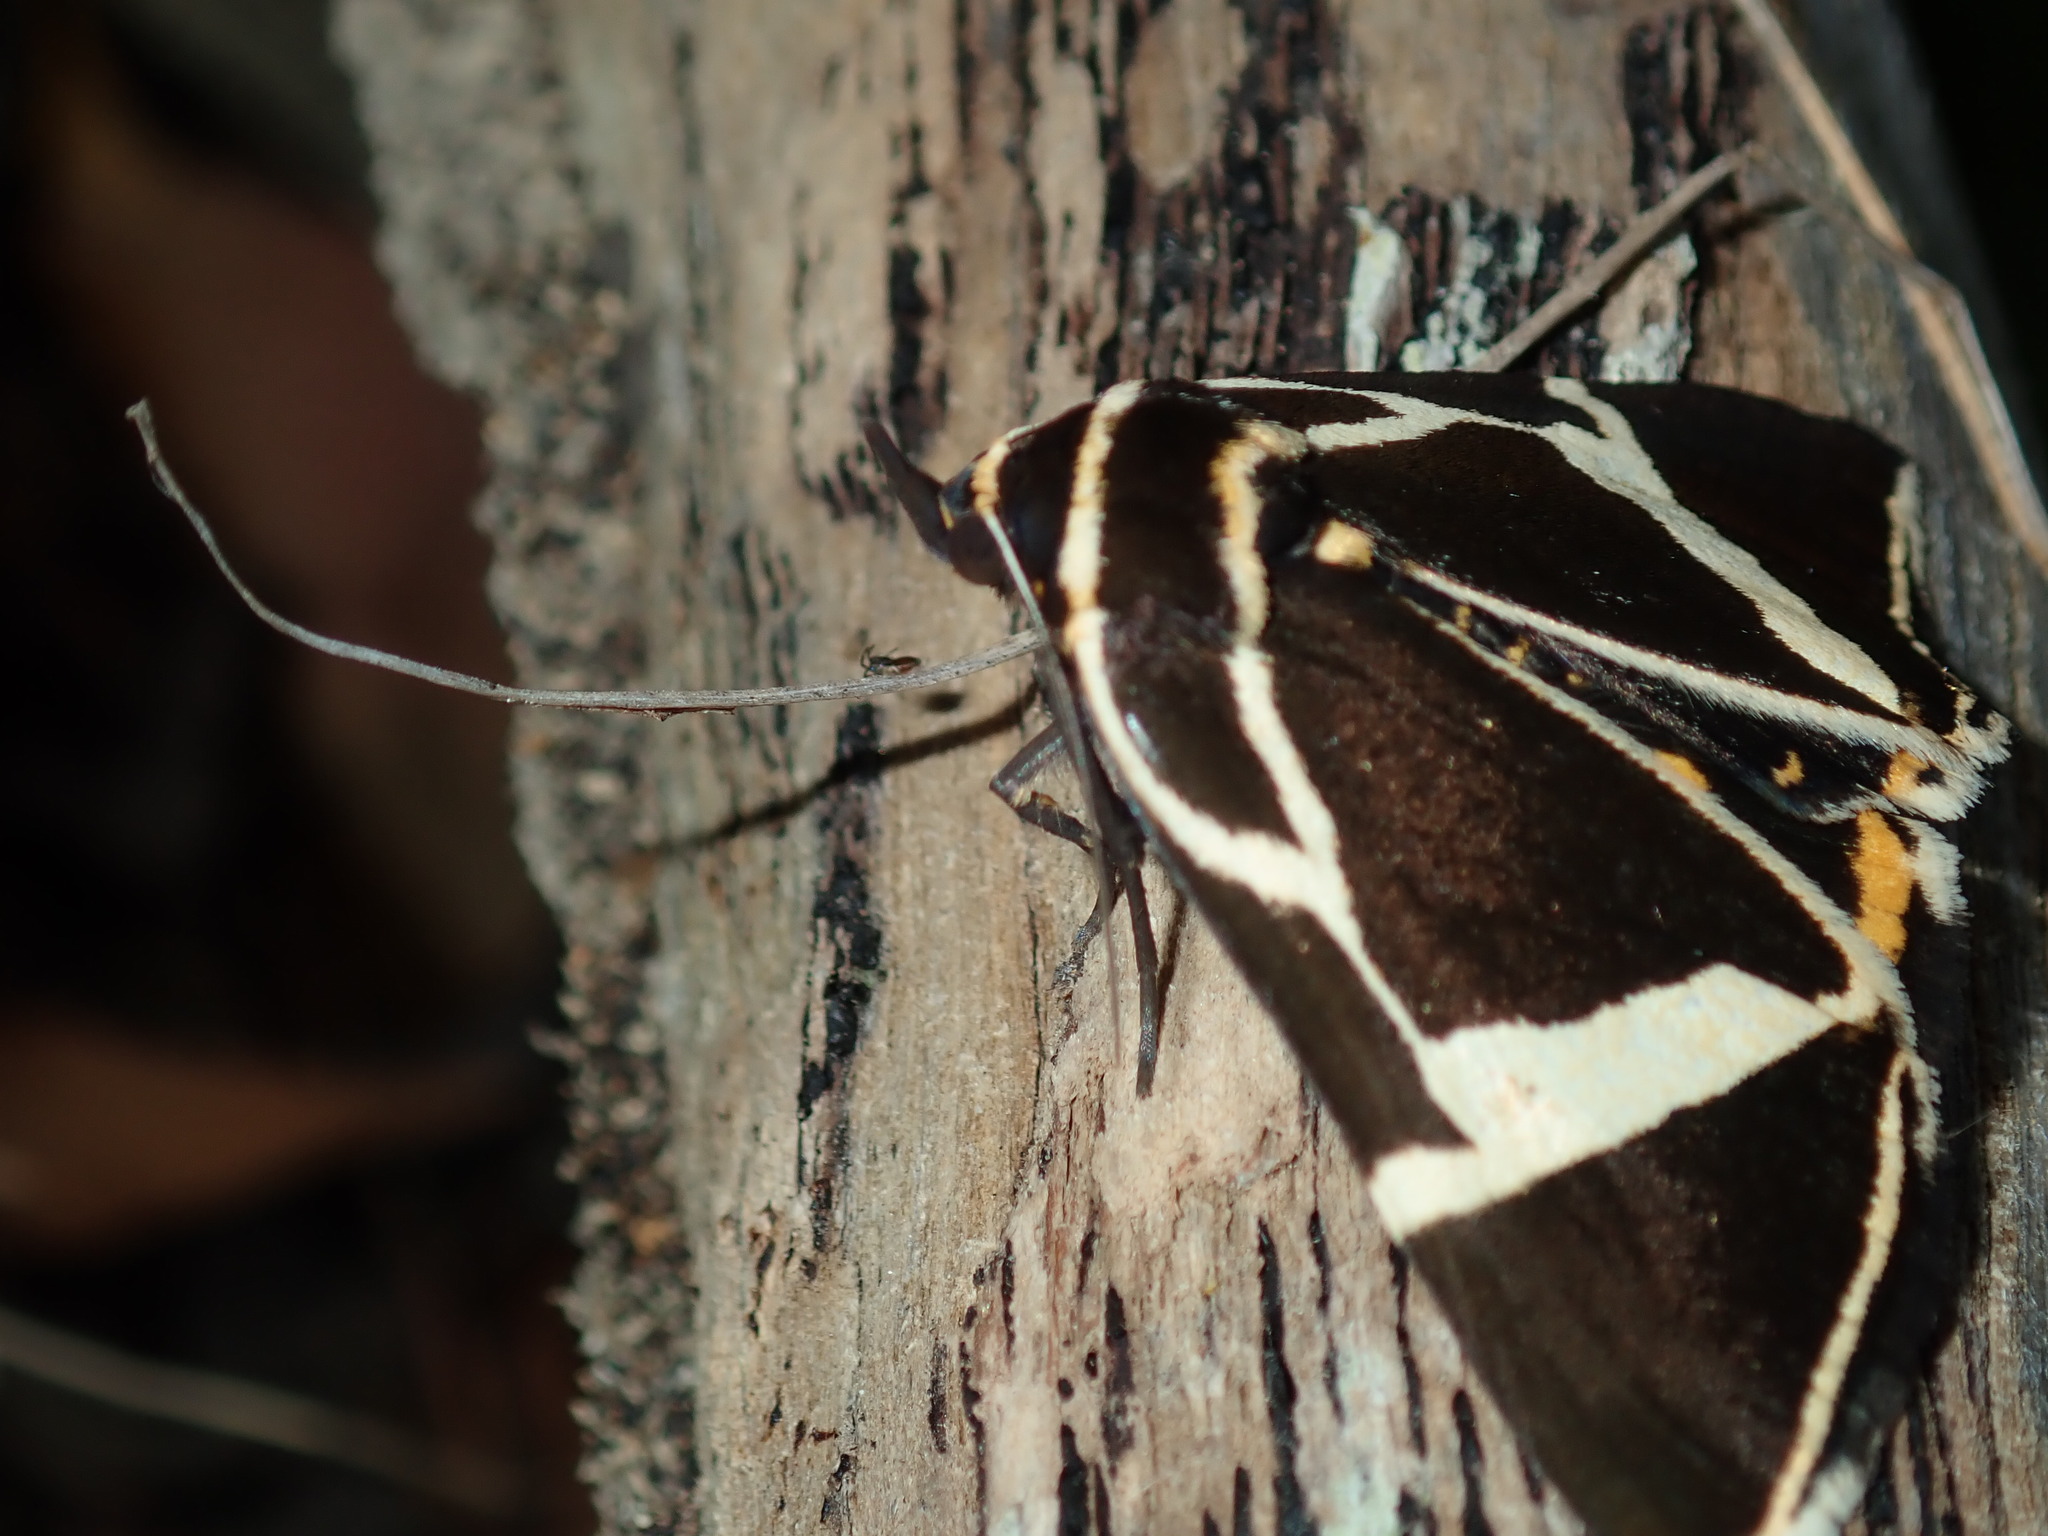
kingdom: Animalia
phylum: Arthropoda
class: Insecta
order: Lepidoptera
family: Erebidae
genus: Fodina
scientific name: Fodina ostorius
